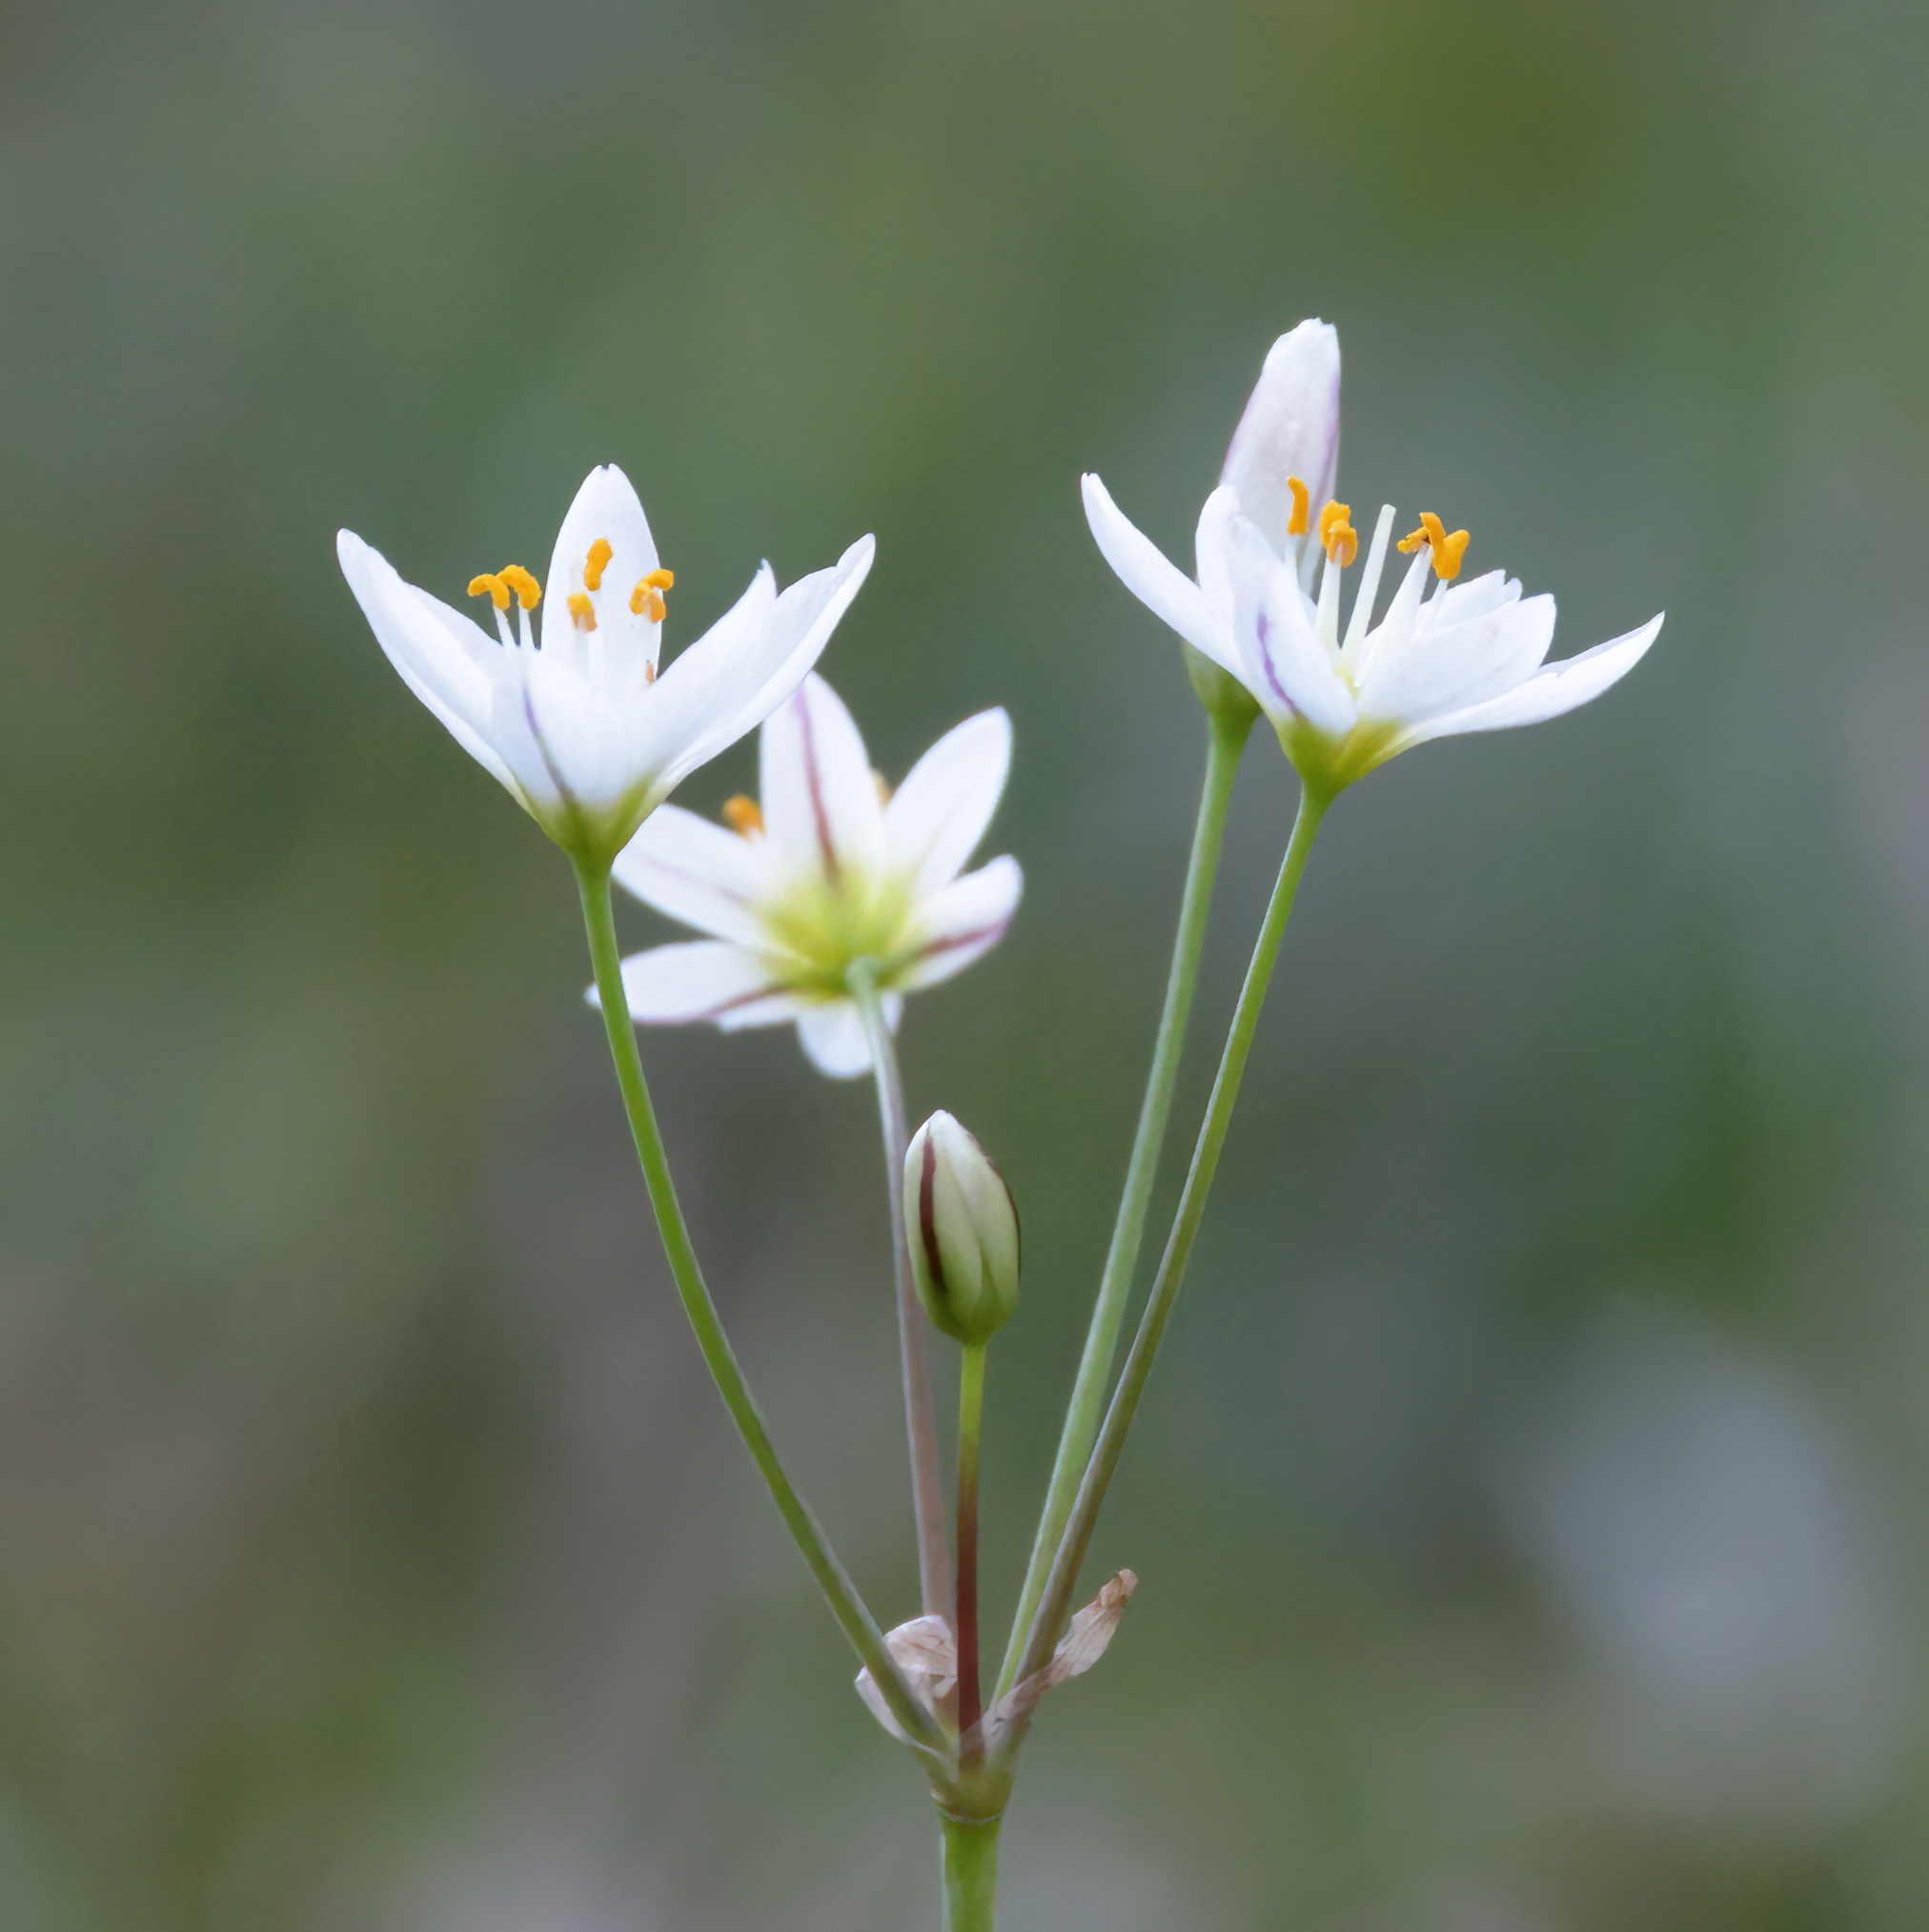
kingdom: Plantae
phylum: Tracheophyta
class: Liliopsida
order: Asparagales
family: Amaryllidaceae
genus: Nothoscordum
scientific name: Nothoscordum bivalve
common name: Crow-poison
